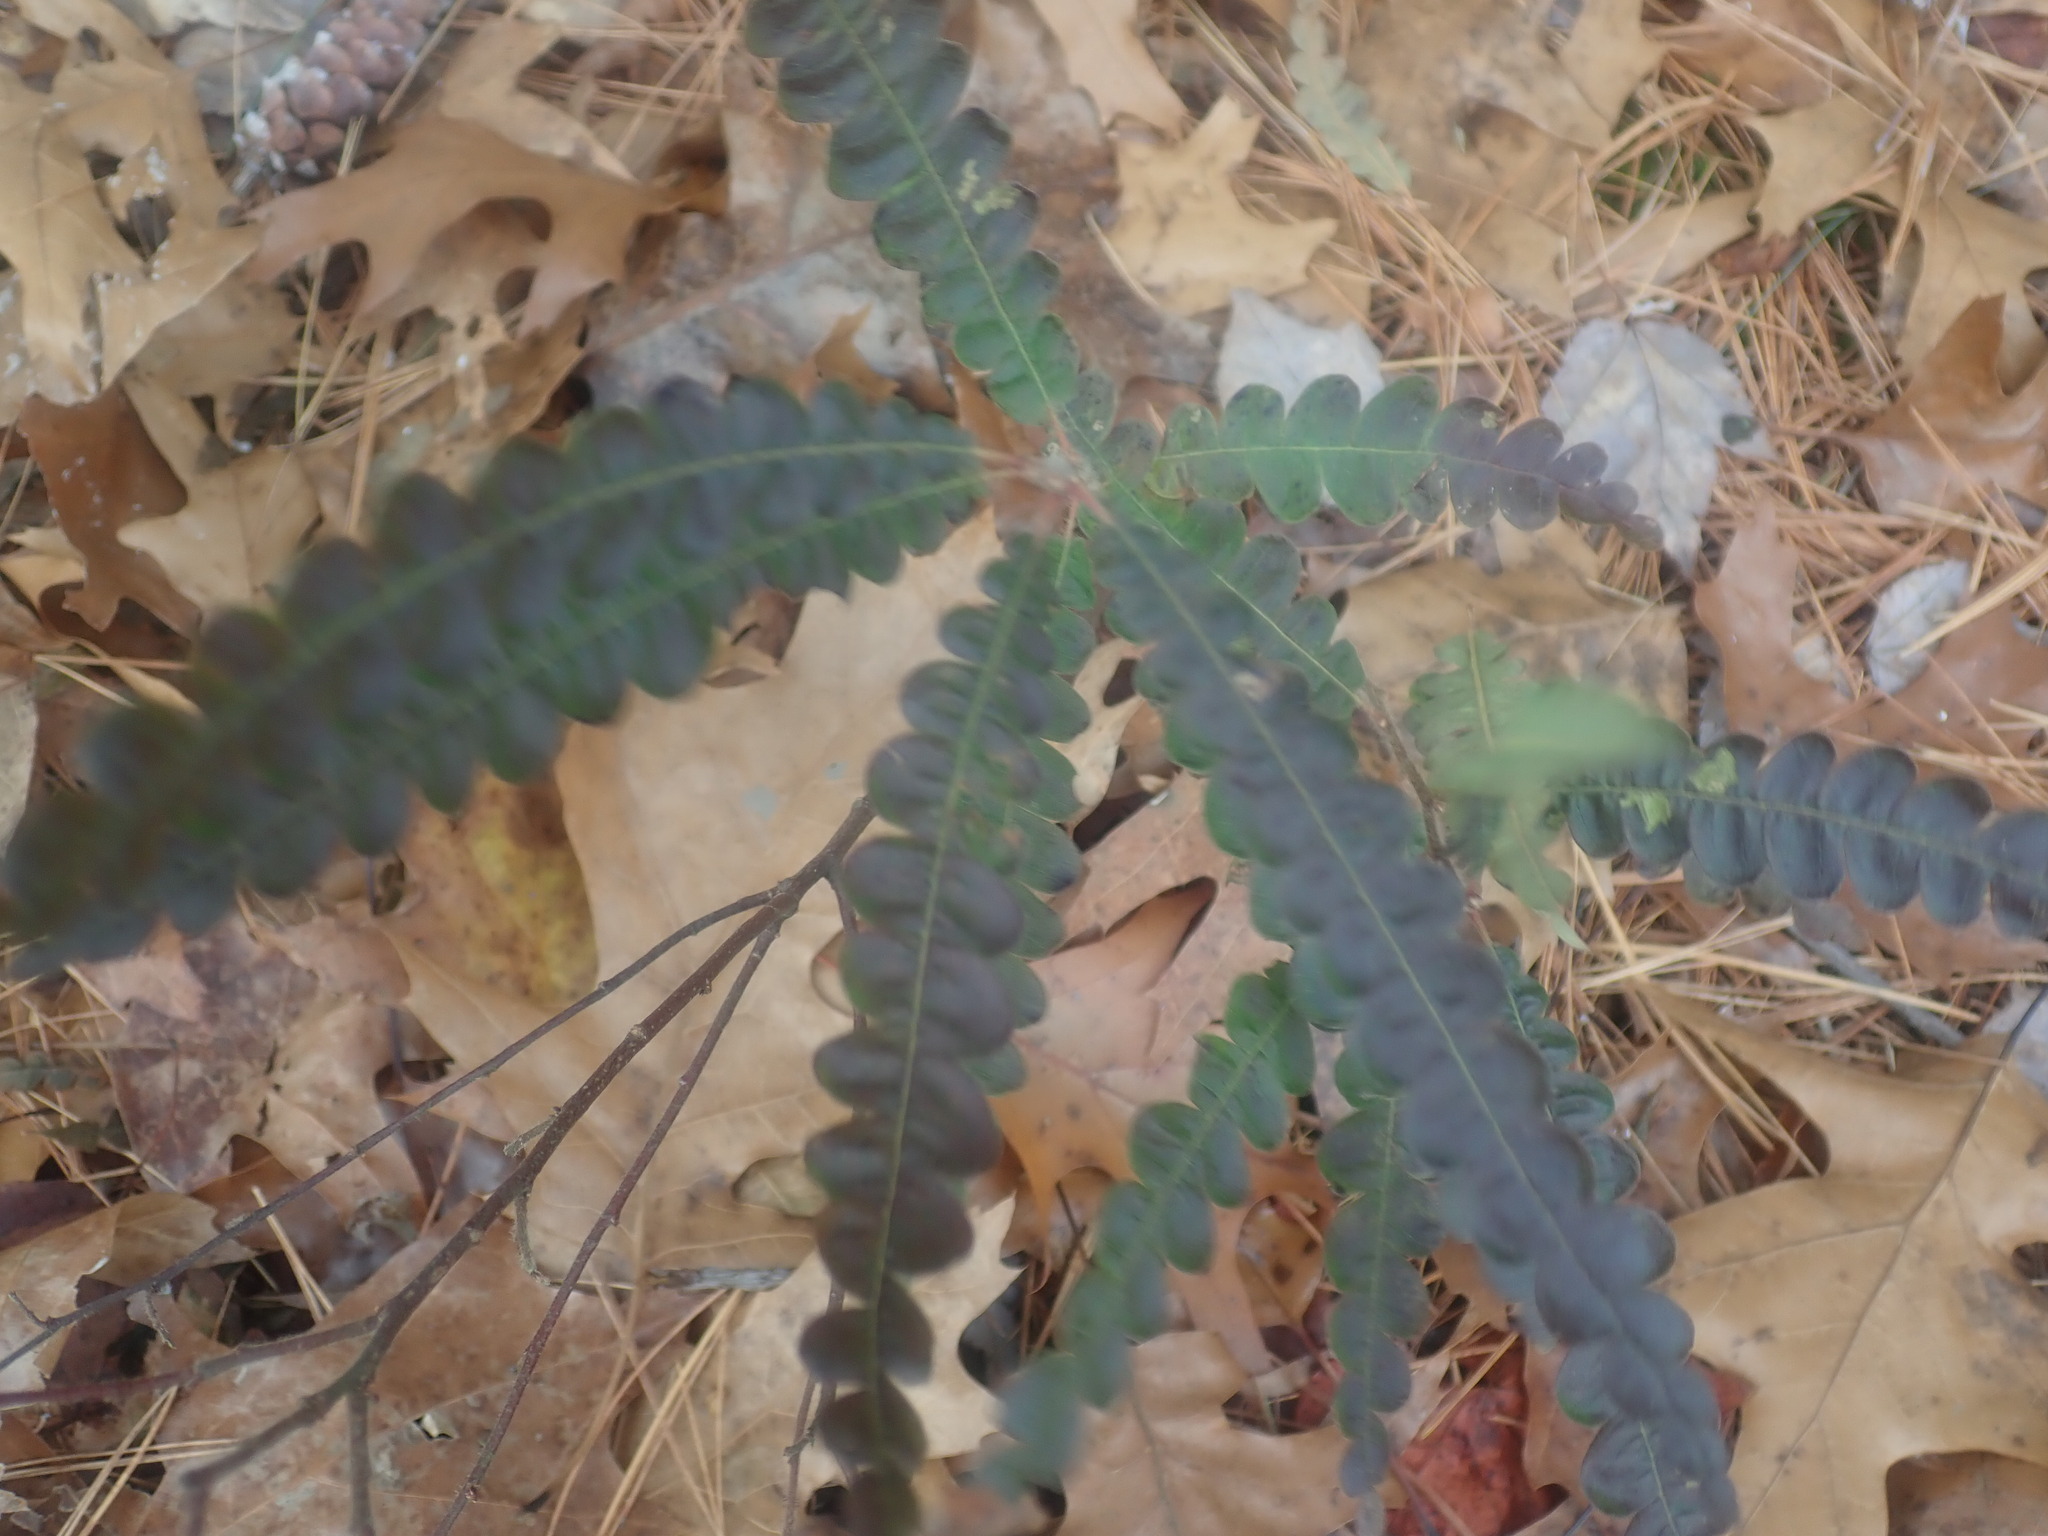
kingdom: Plantae
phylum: Tracheophyta
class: Magnoliopsida
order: Fagales
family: Myricaceae
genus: Comptonia
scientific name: Comptonia peregrina
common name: Sweet-fern
